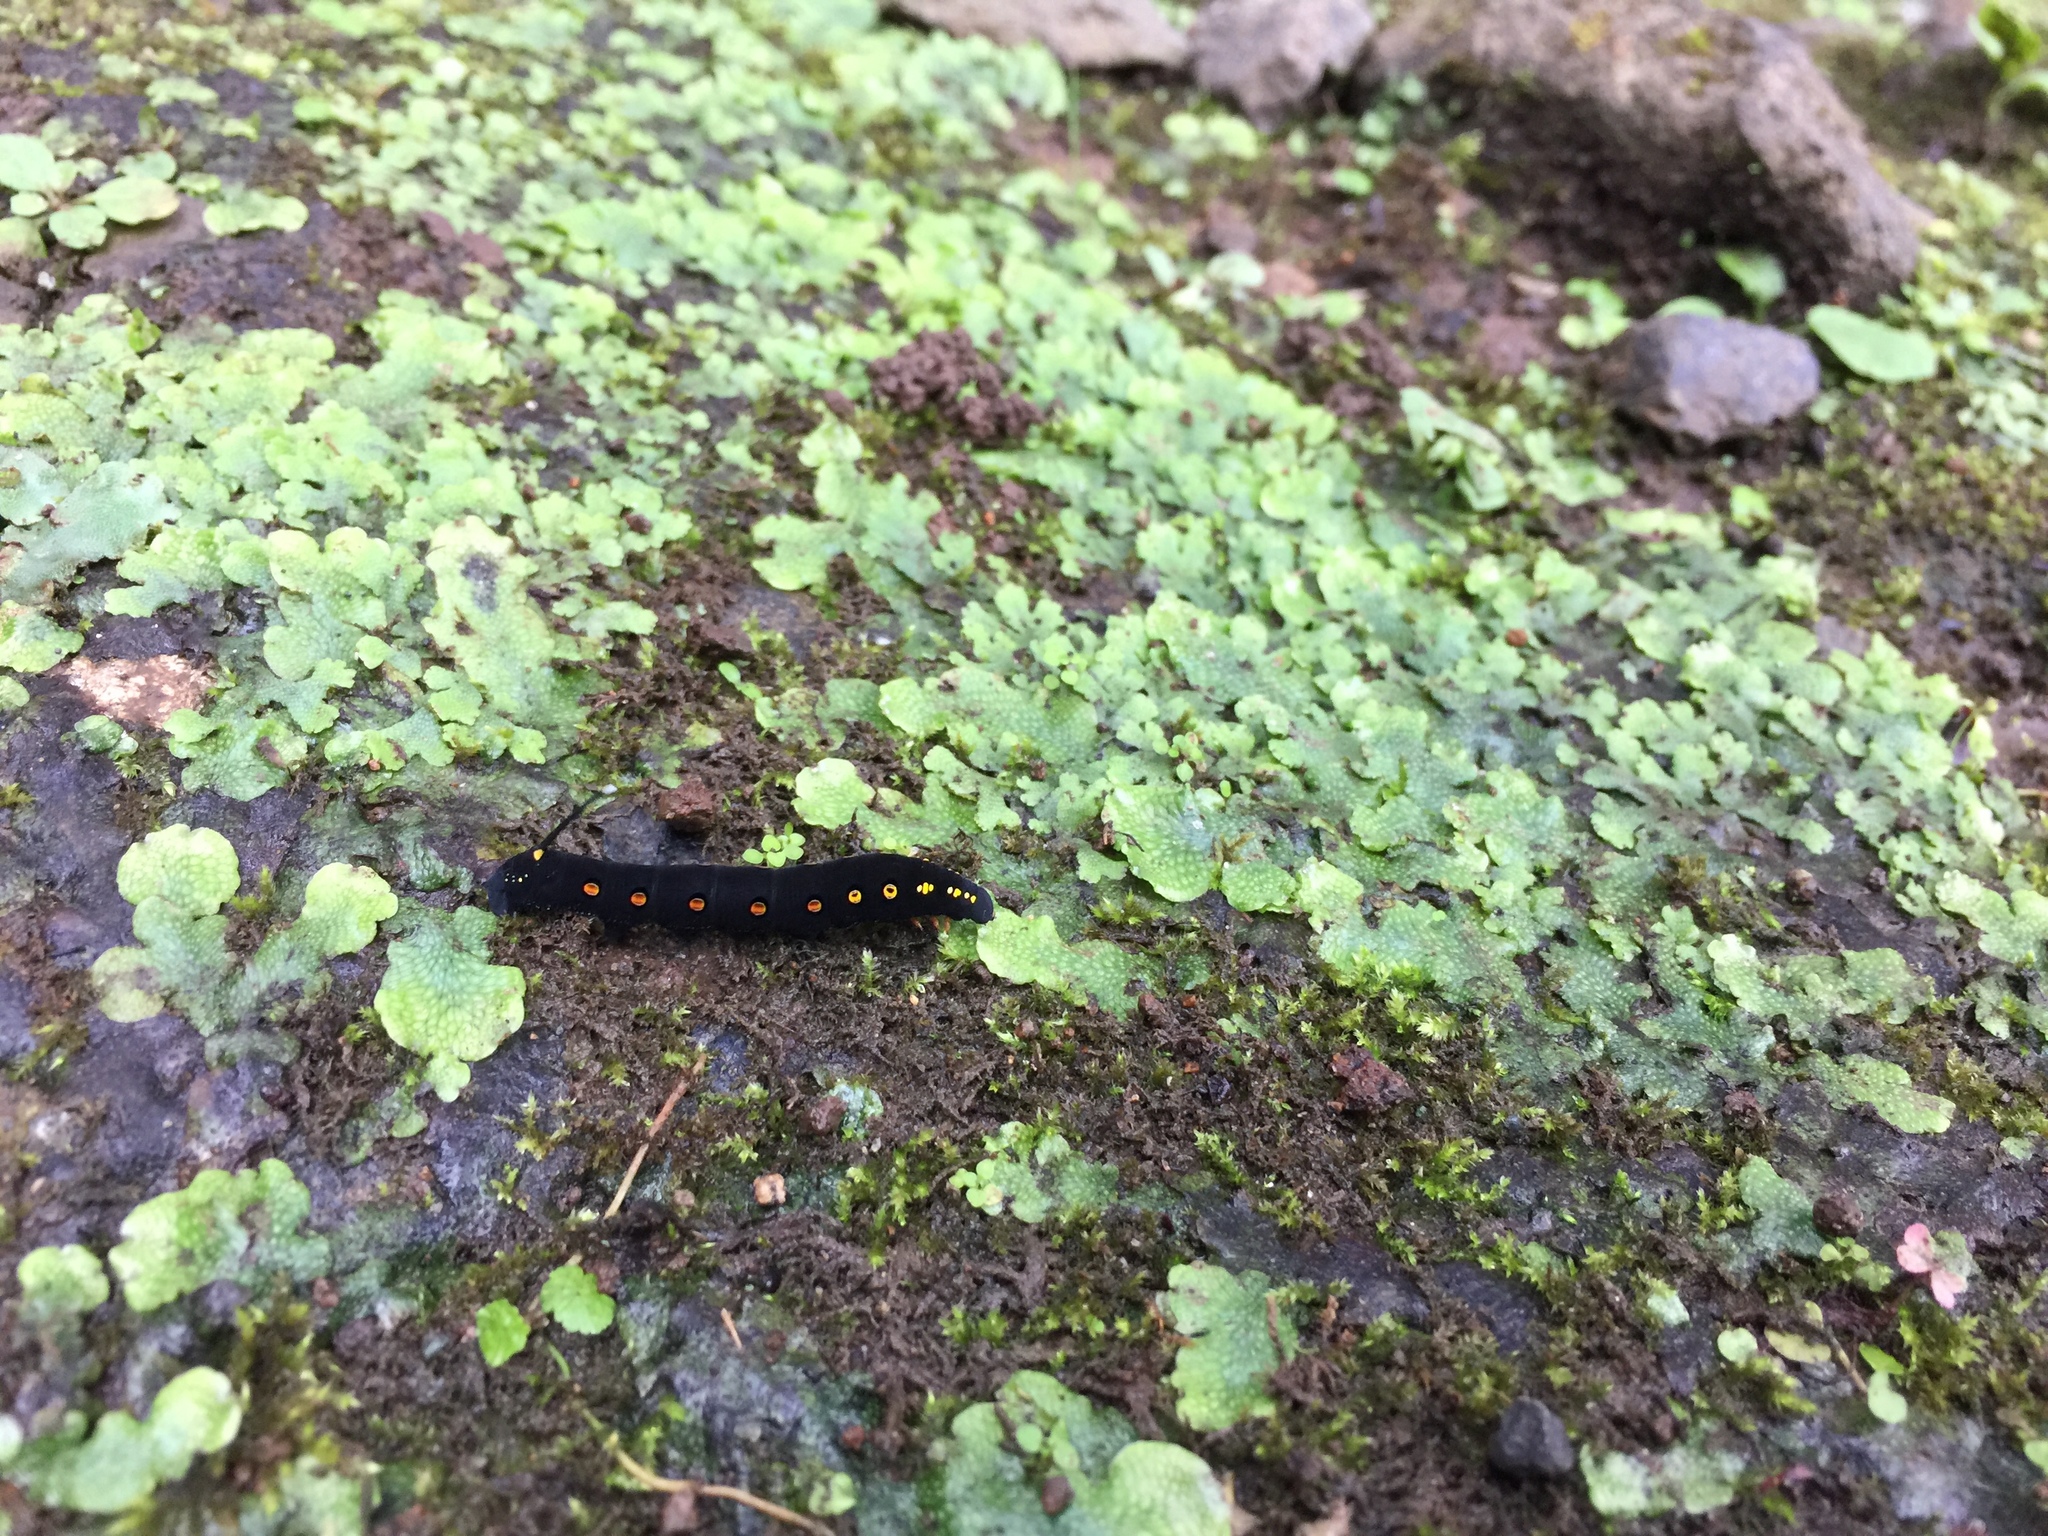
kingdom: Animalia
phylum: Arthropoda
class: Insecta
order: Lepidoptera
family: Sphingidae
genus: Theretra
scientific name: Theretra oldenlandiae
